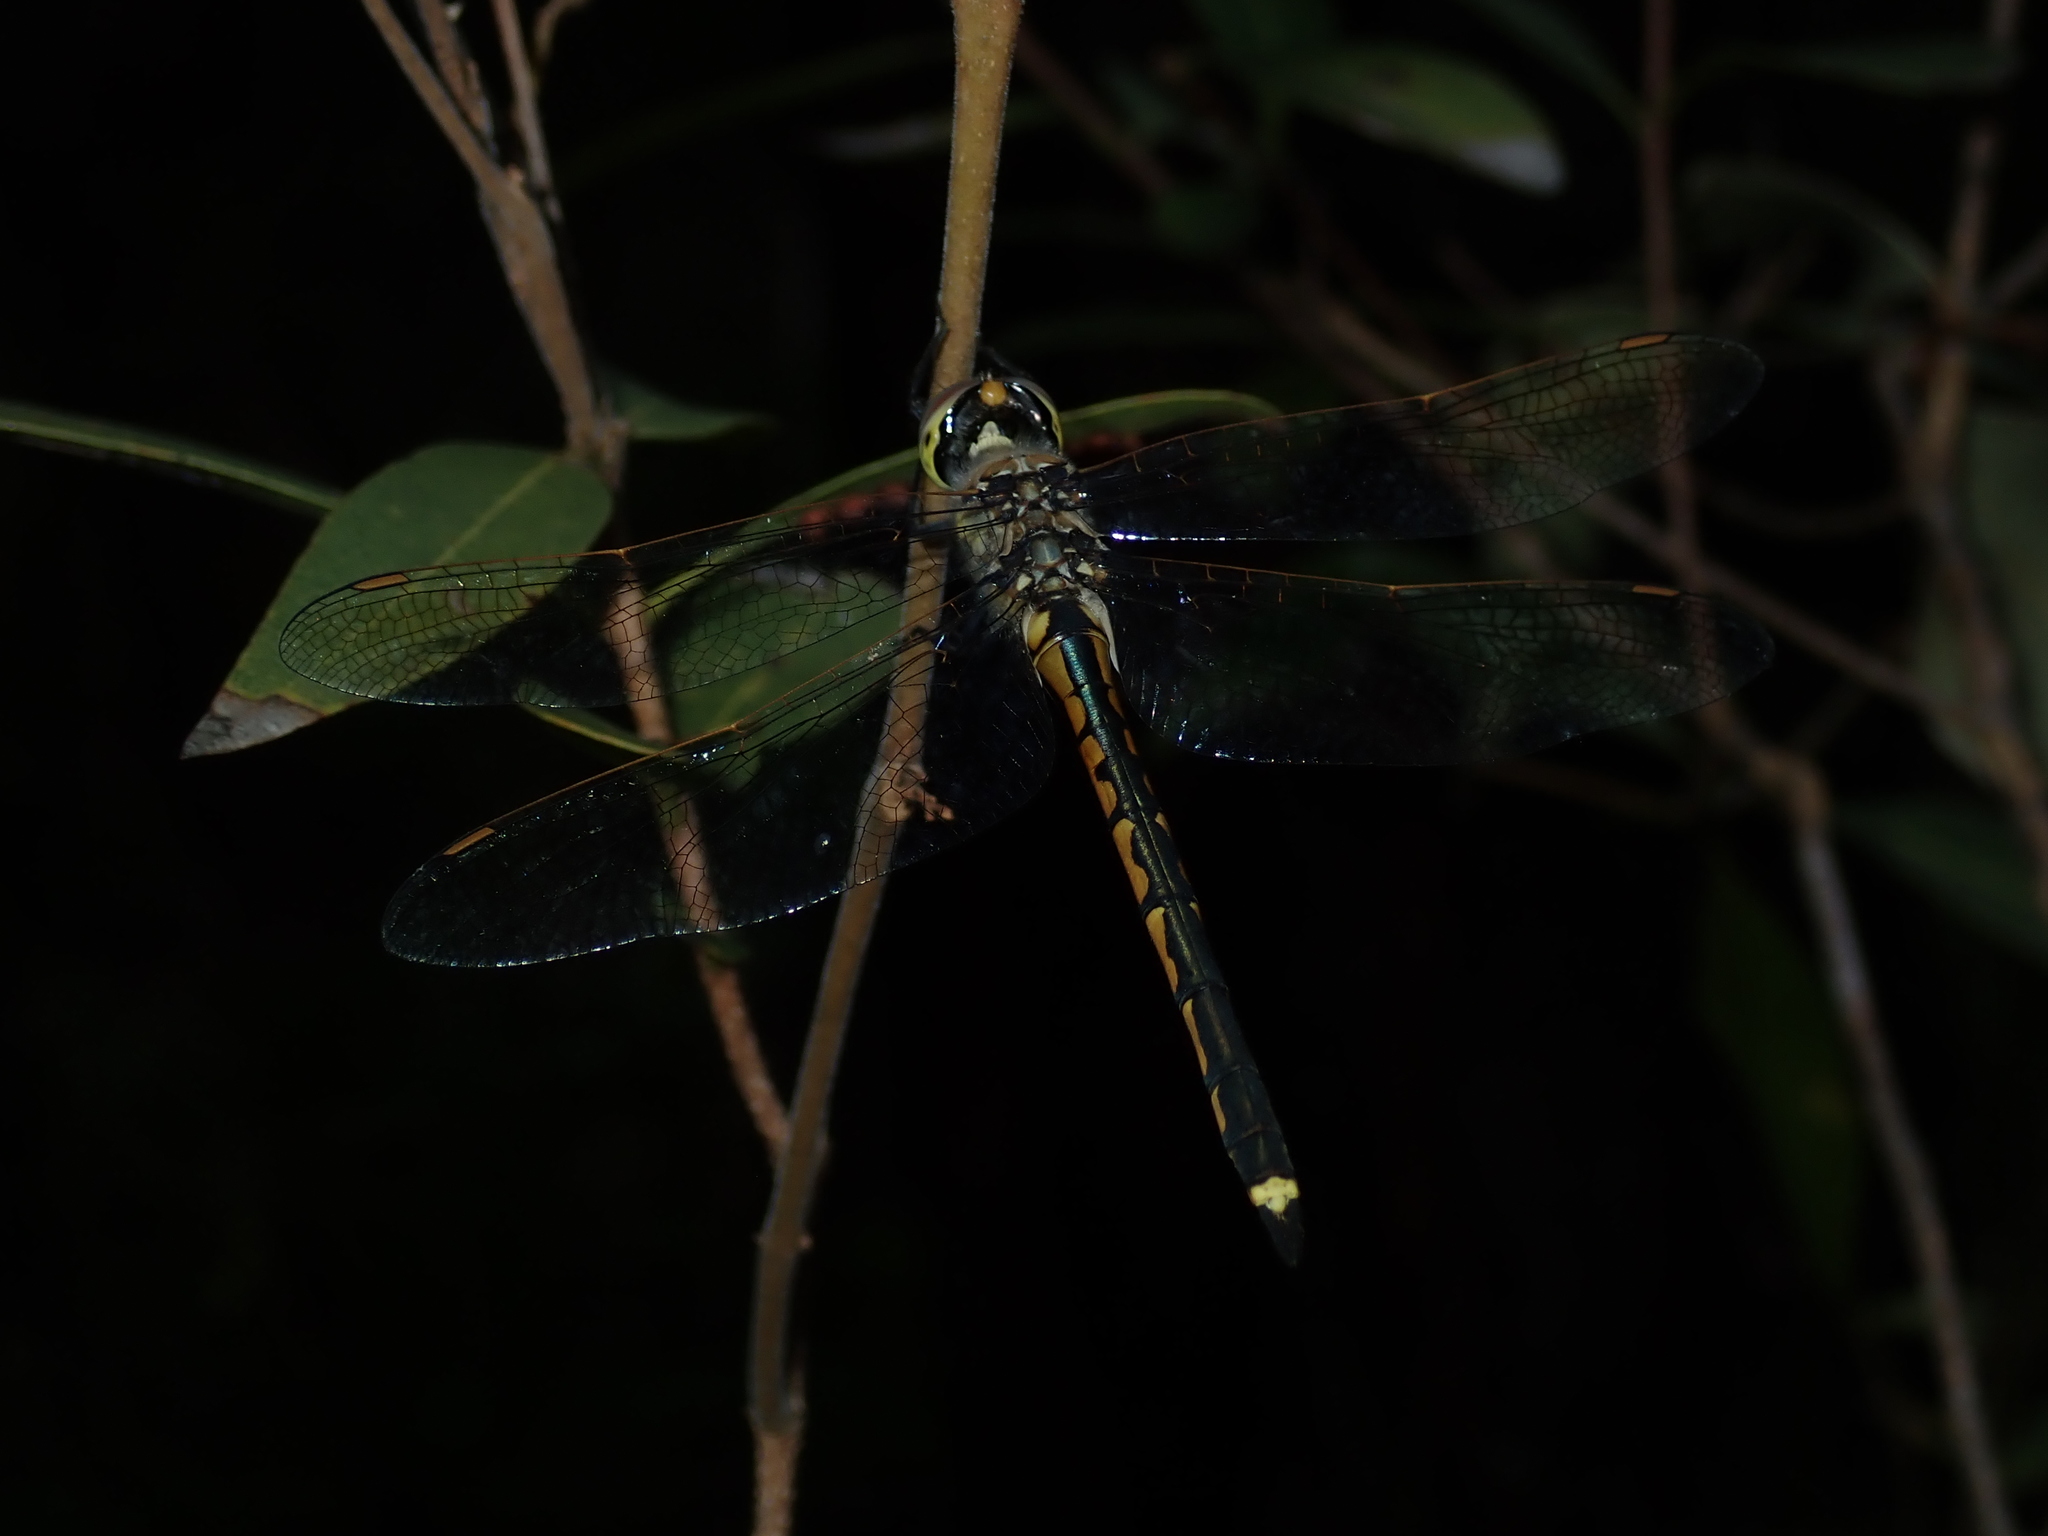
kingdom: Animalia
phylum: Arthropoda
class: Insecta
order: Odonata
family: Corduliidae
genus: Hemicordulia
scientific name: Hemicordulia tau
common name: Tau emerald
